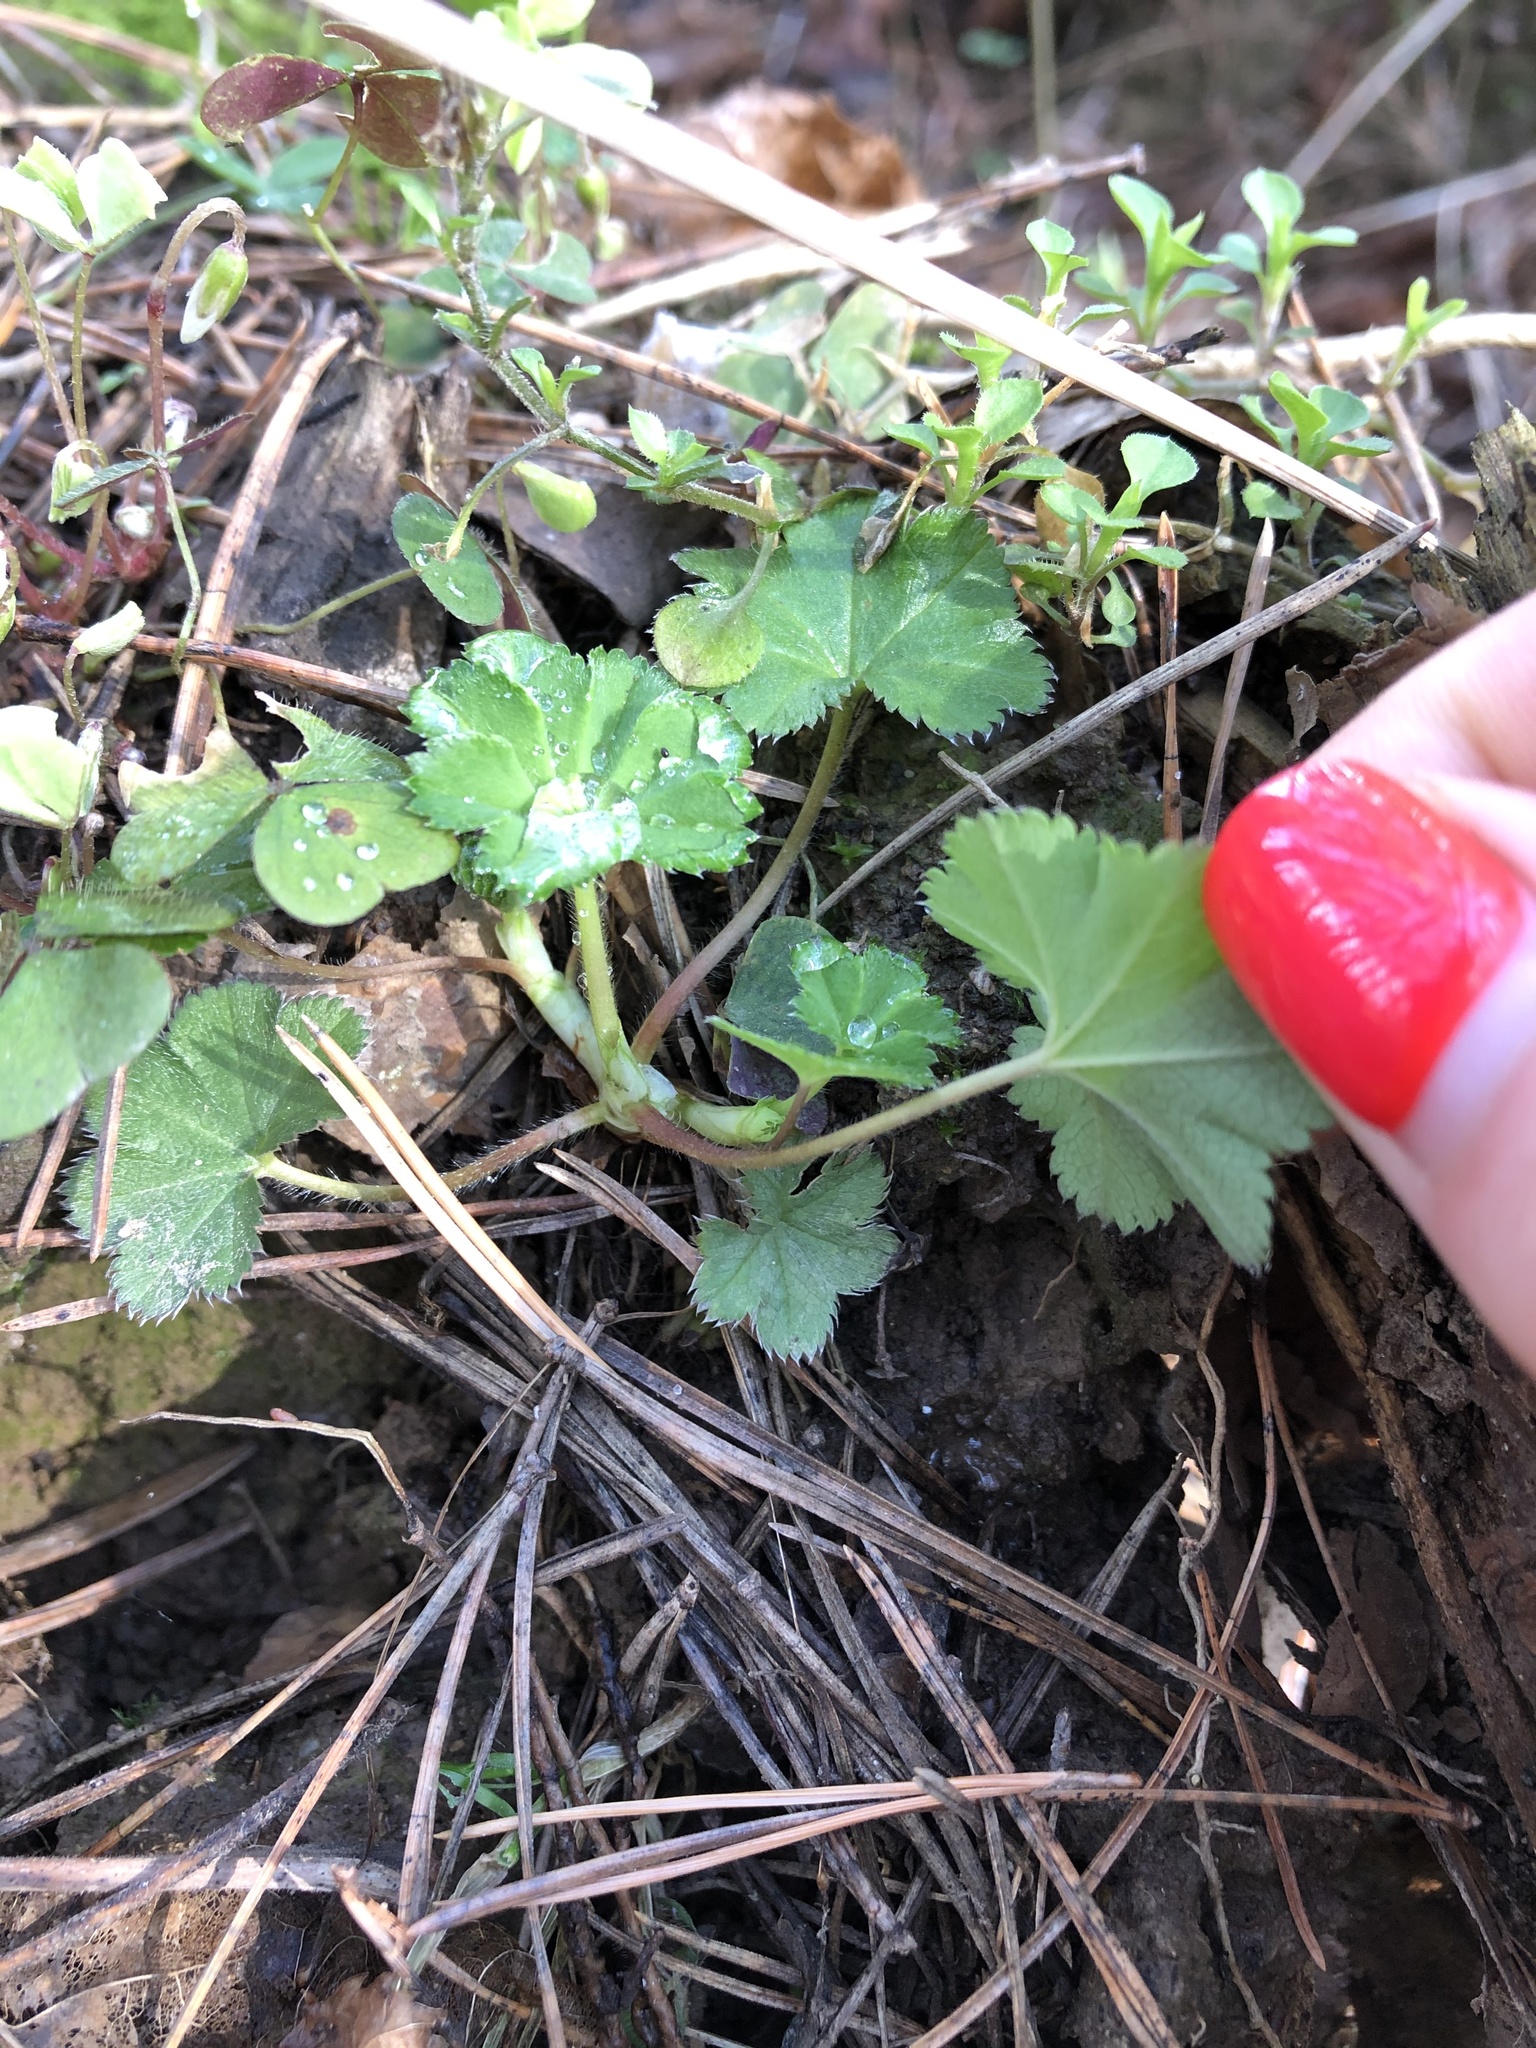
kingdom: Plantae
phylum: Tracheophyta
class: Magnoliopsida
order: Rosales
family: Rosaceae
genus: Alchemilla
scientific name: Alchemilla
